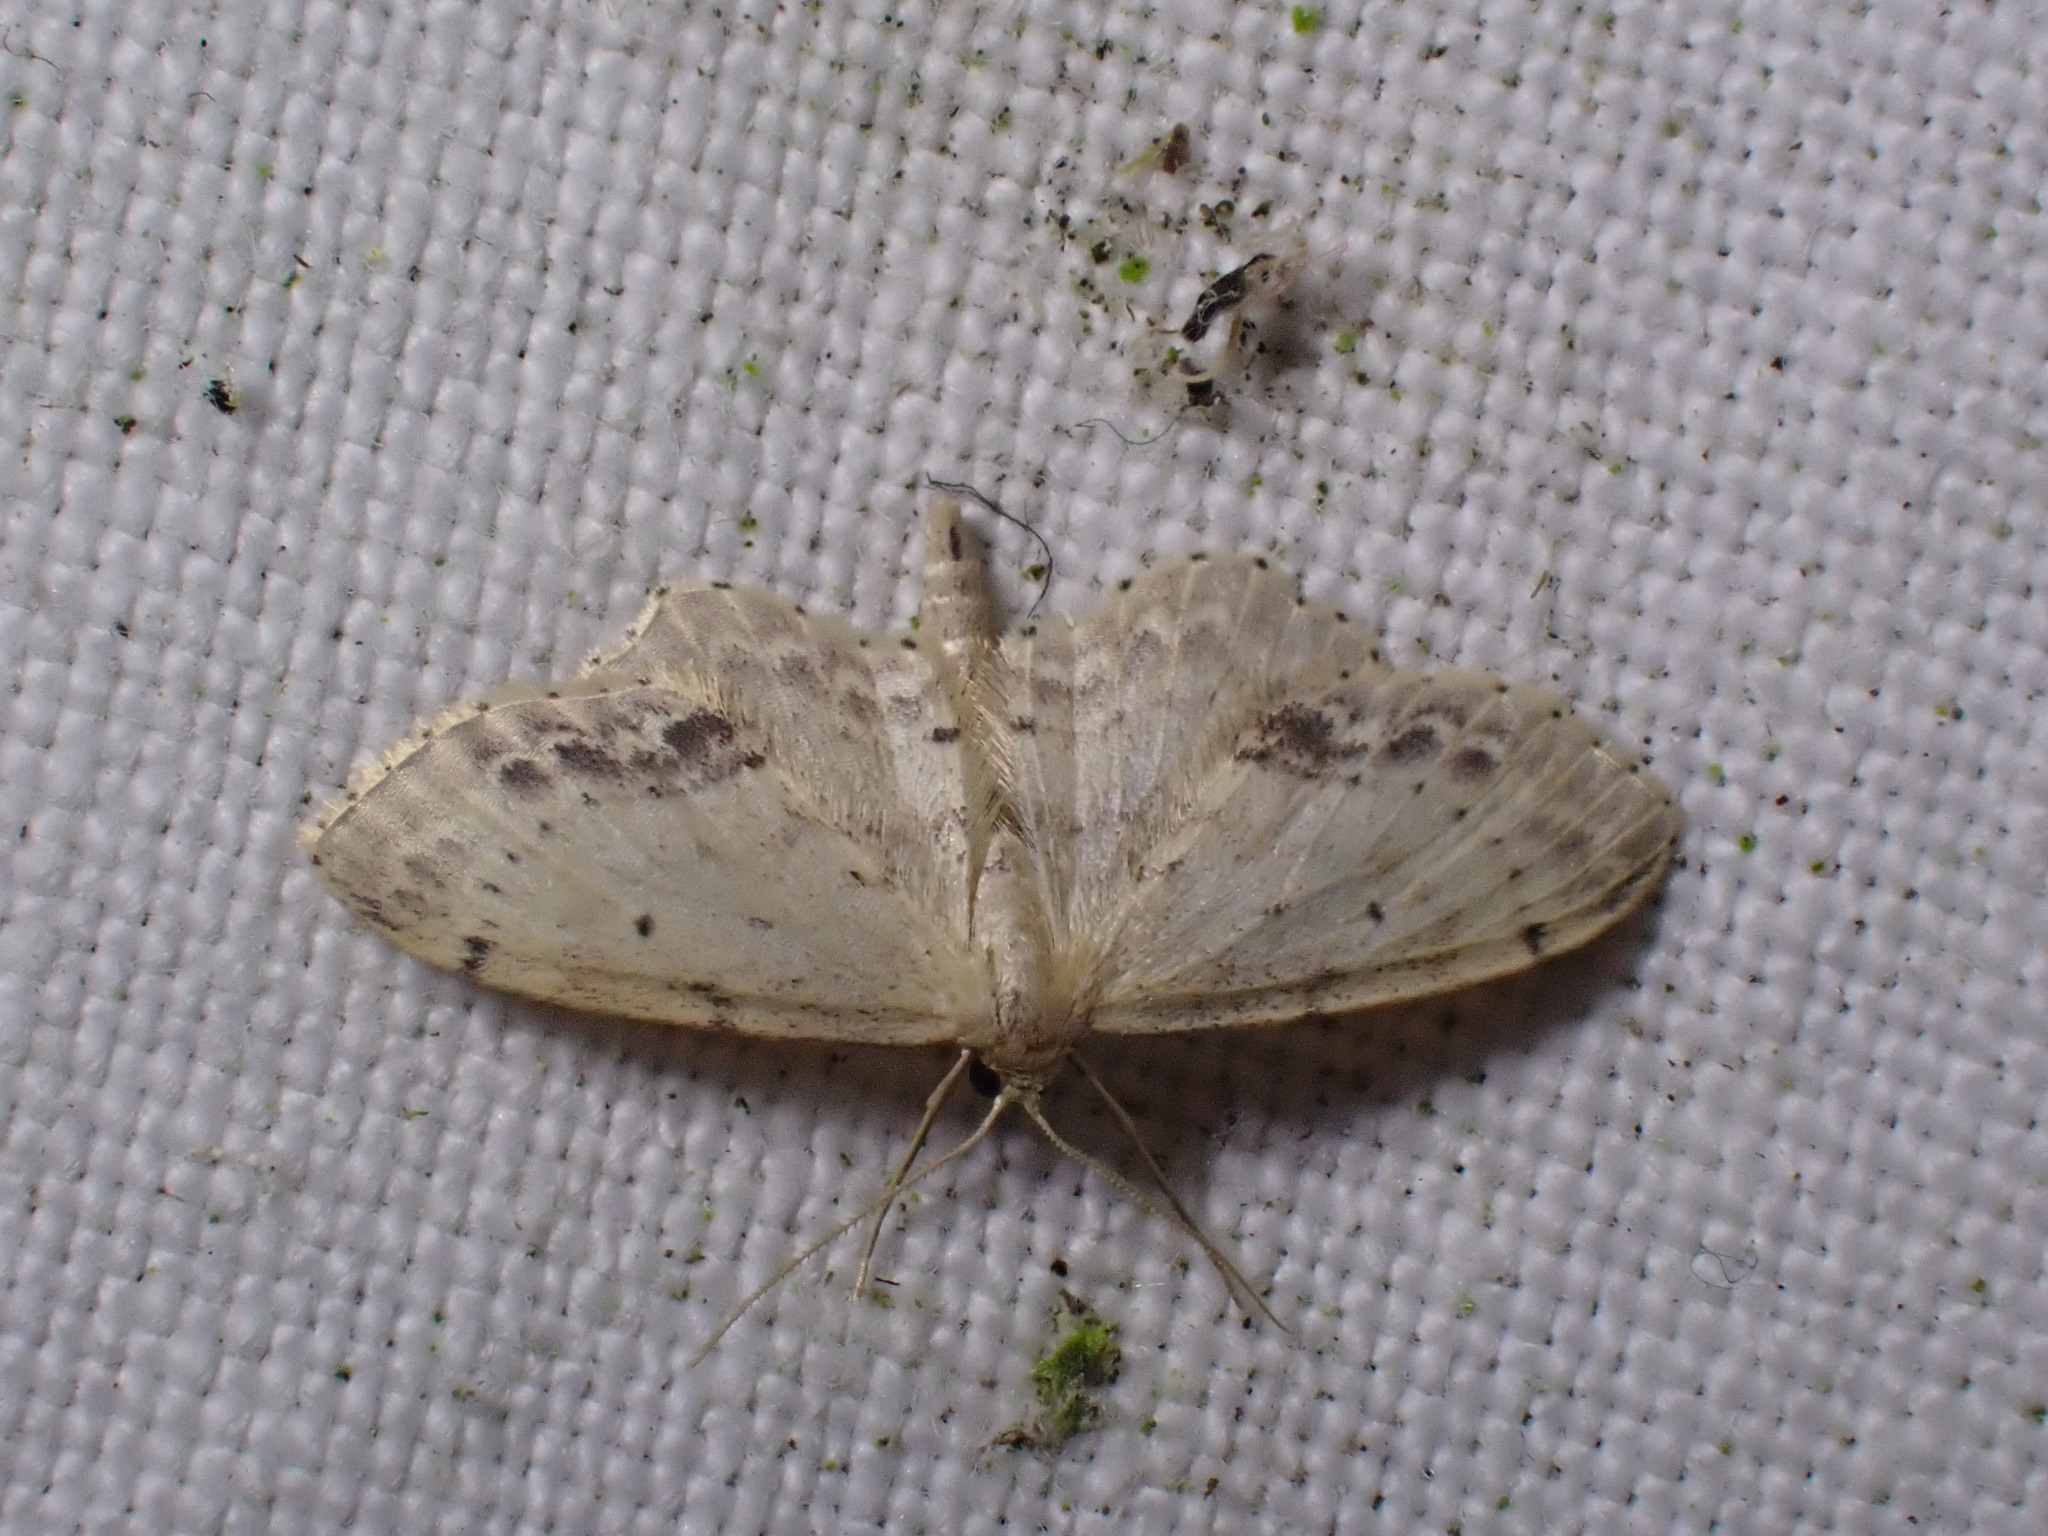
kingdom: Animalia
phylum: Arthropoda
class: Insecta
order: Lepidoptera
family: Geometridae
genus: Idaea
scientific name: Idaea dimidiata
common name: Single-dotted wave
